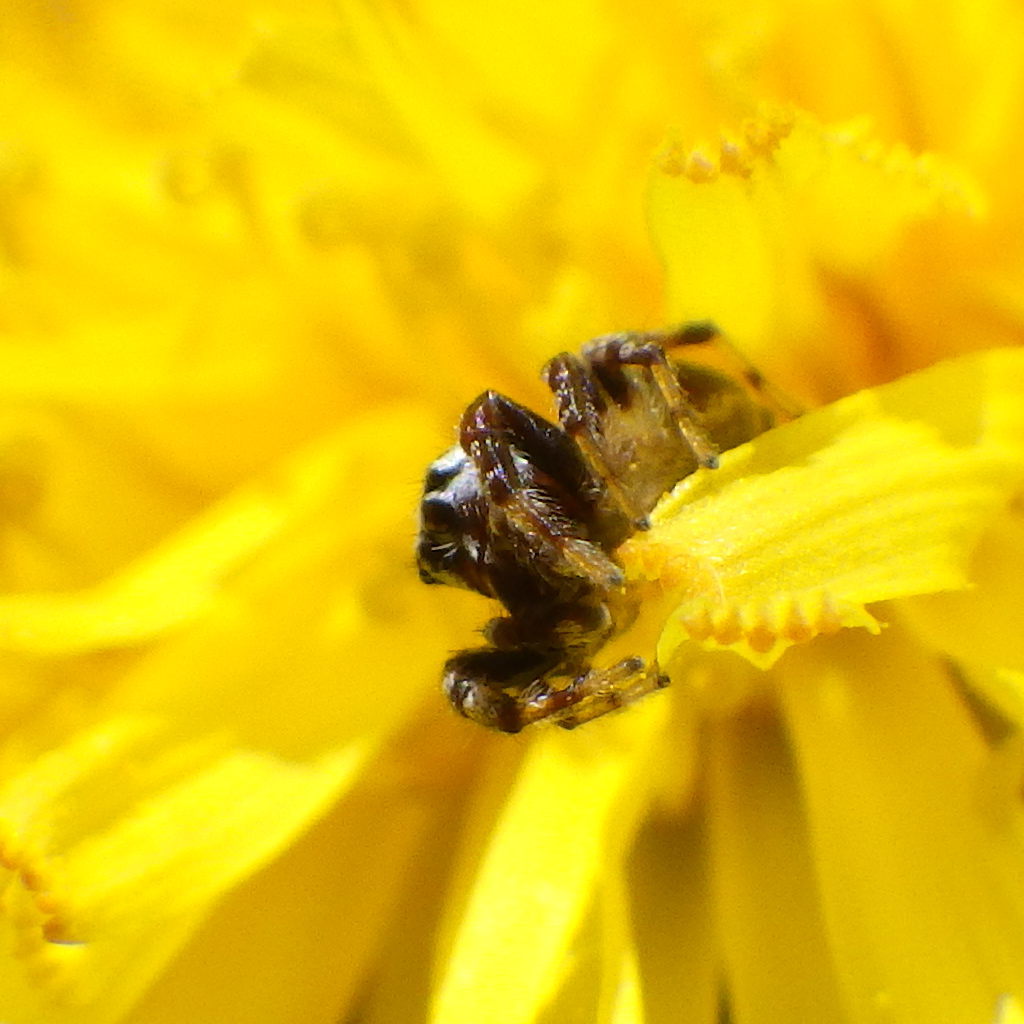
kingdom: Animalia
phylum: Arthropoda
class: Arachnida
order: Araneae
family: Salticidae
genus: Pelegrina
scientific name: Pelegrina proterva
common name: Common white-cheeked jumping spider
